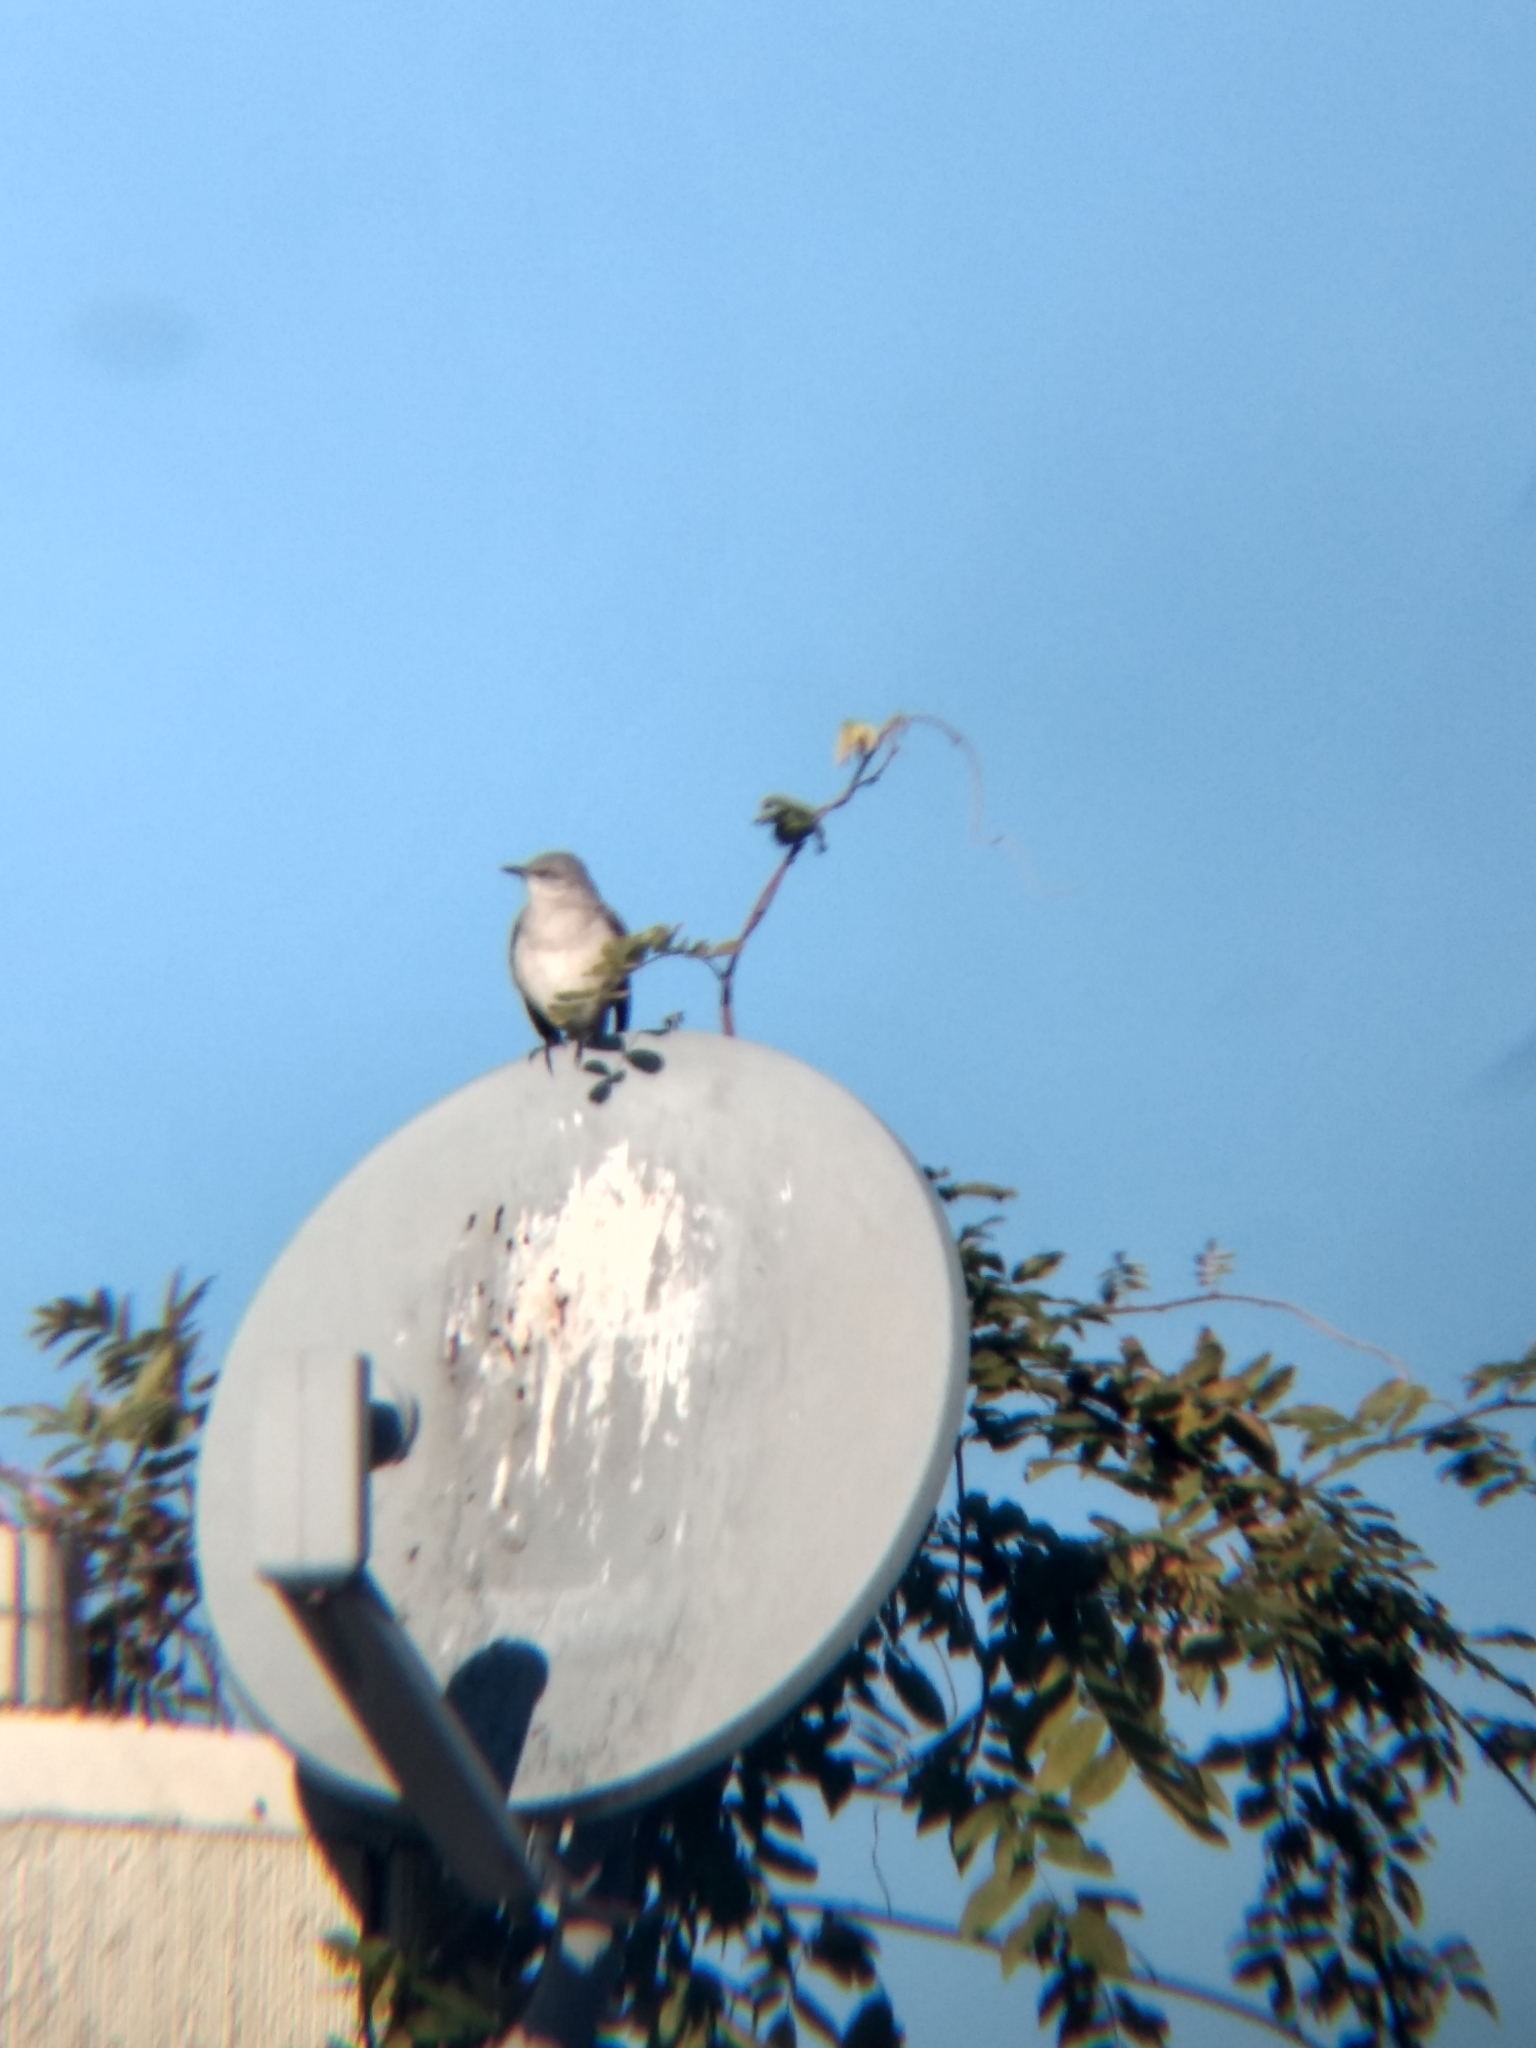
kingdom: Animalia
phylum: Chordata
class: Aves
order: Passeriformes
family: Mimidae
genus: Mimus
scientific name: Mimus polyglottos
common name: Northern mockingbird
